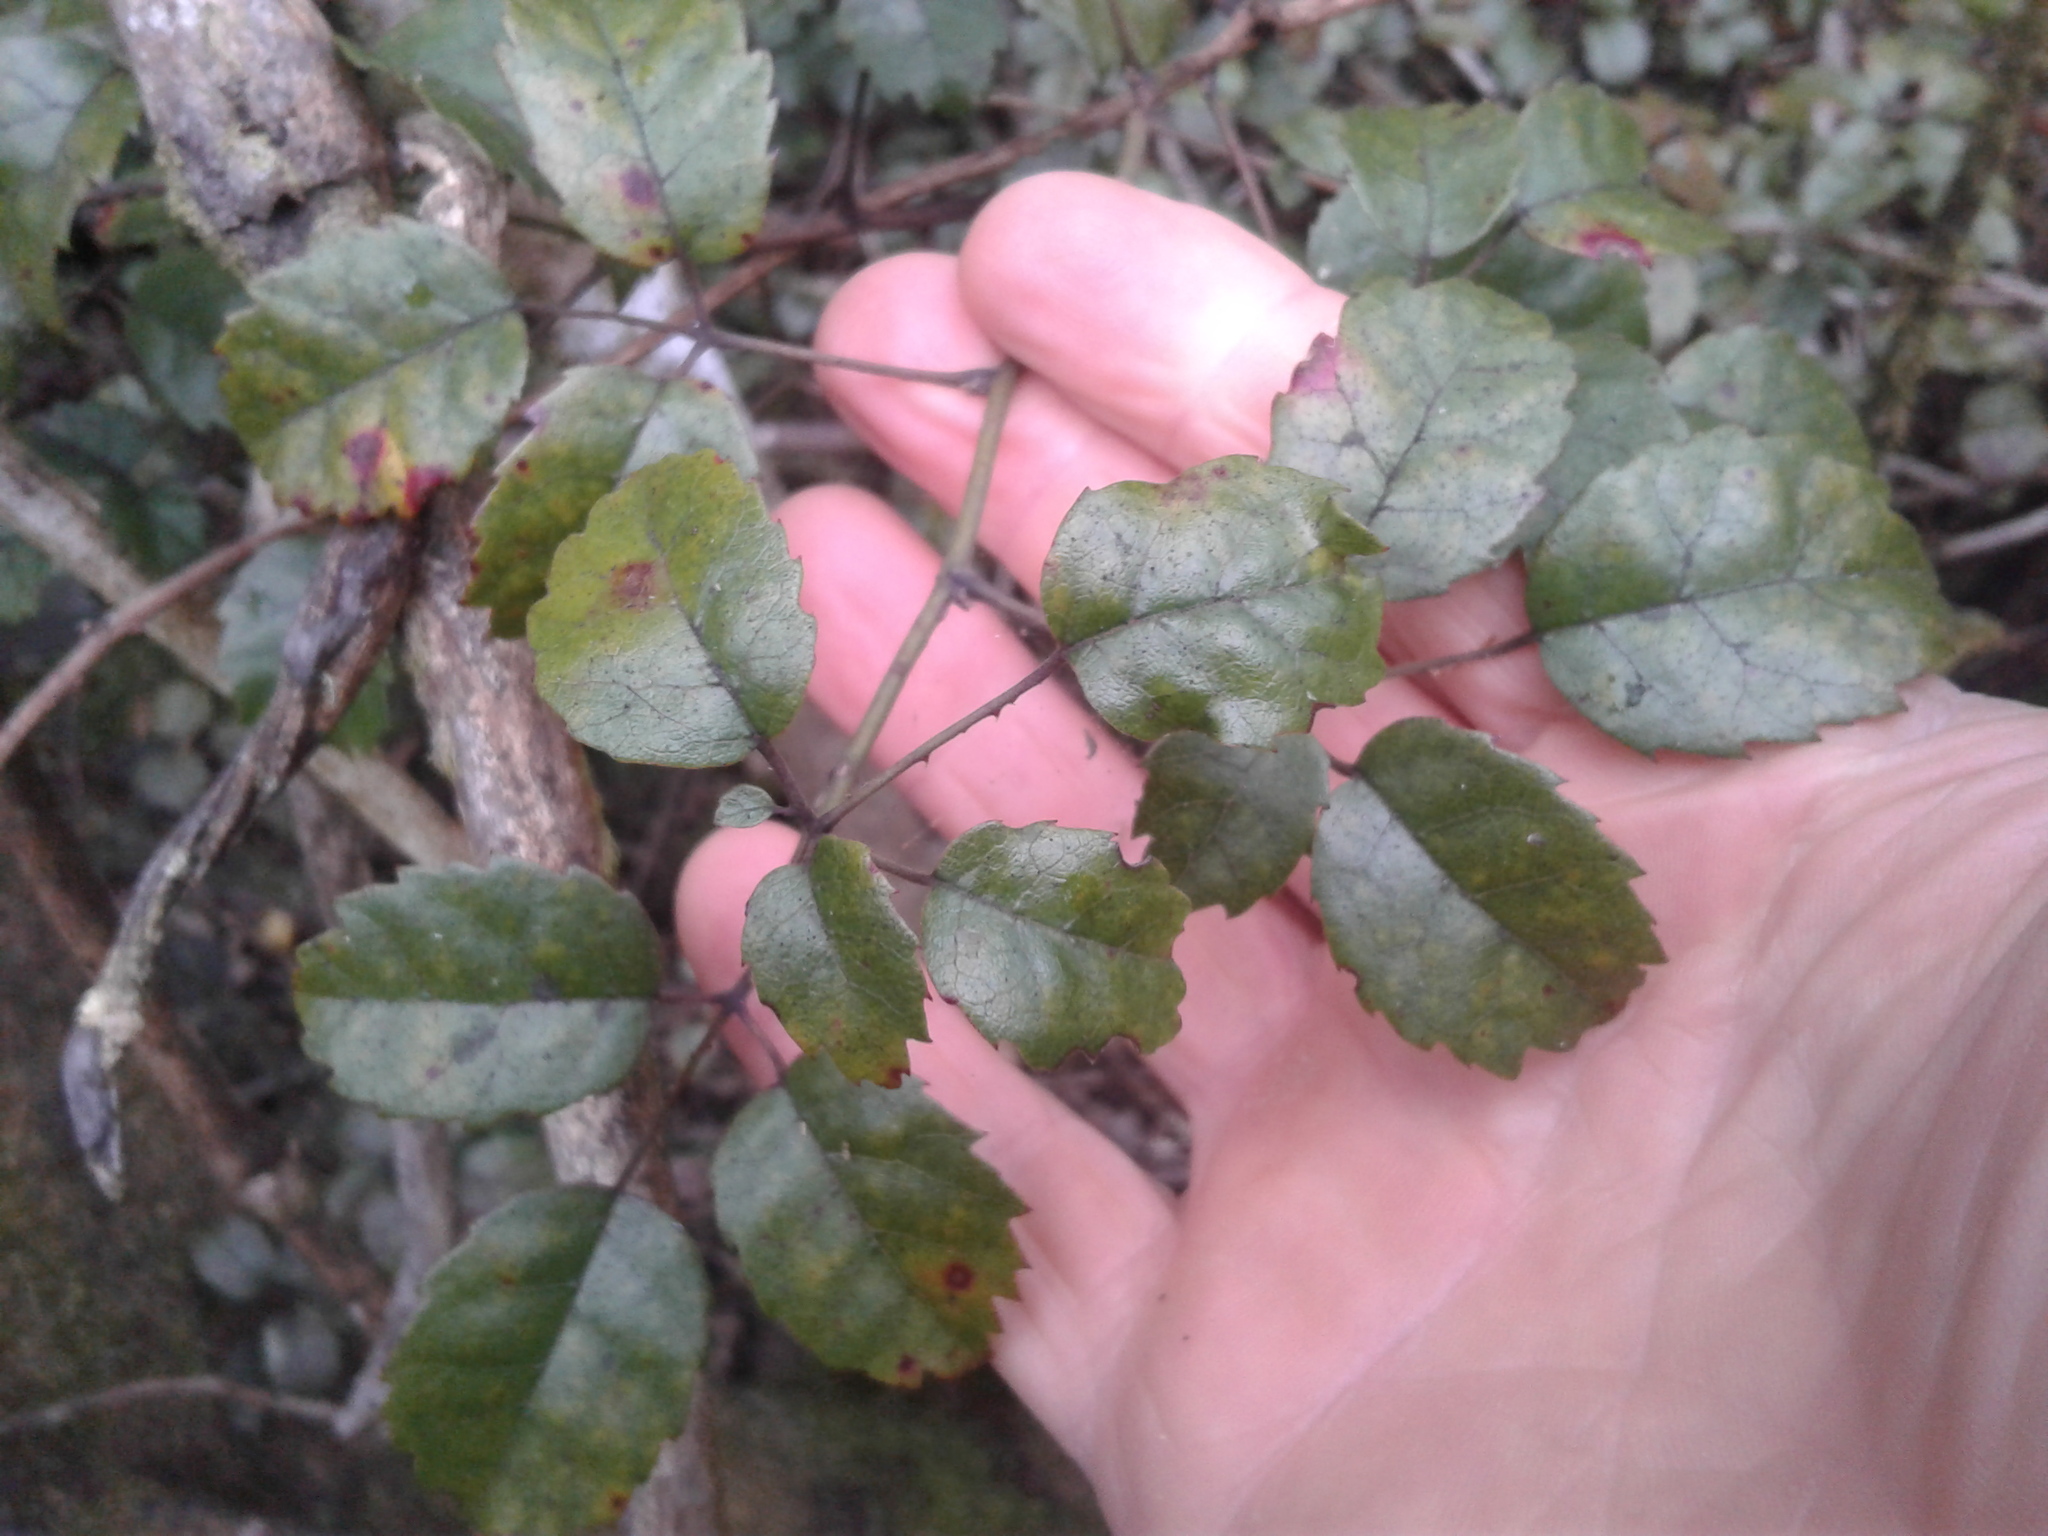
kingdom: Plantae
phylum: Tracheophyta
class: Magnoliopsida
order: Rosales
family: Rosaceae
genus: Rubus
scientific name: Rubus australis
